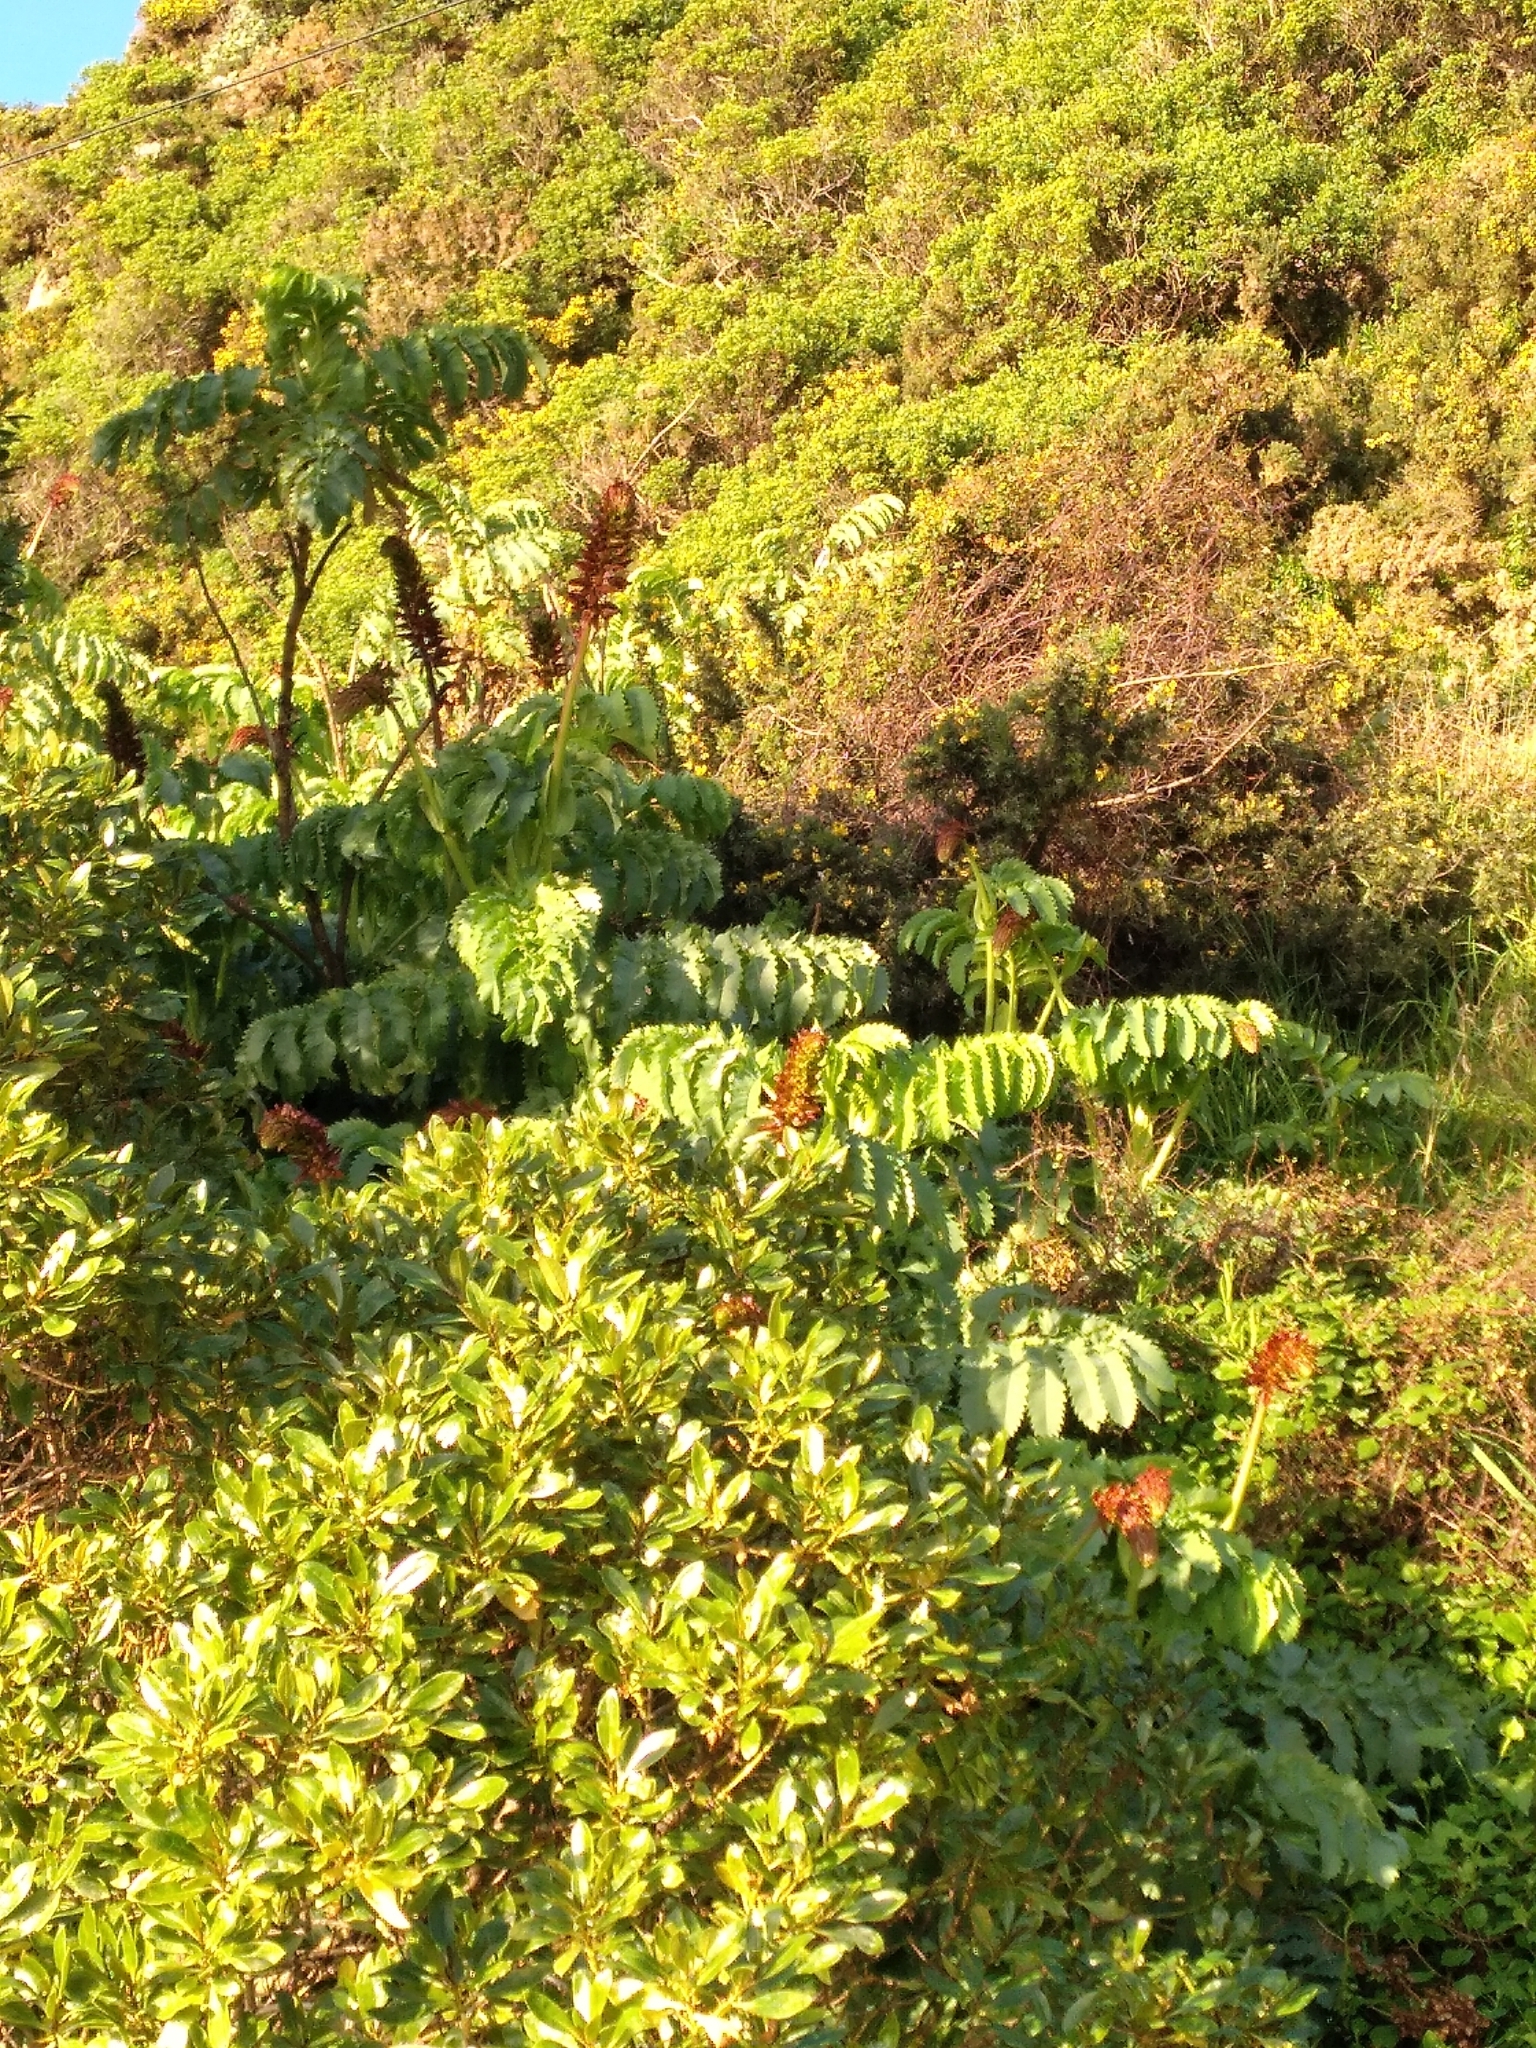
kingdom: Plantae
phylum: Tracheophyta
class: Magnoliopsida
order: Geraniales
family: Melianthaceae
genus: Melianthus
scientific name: Melianthus major
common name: Honey-flower
